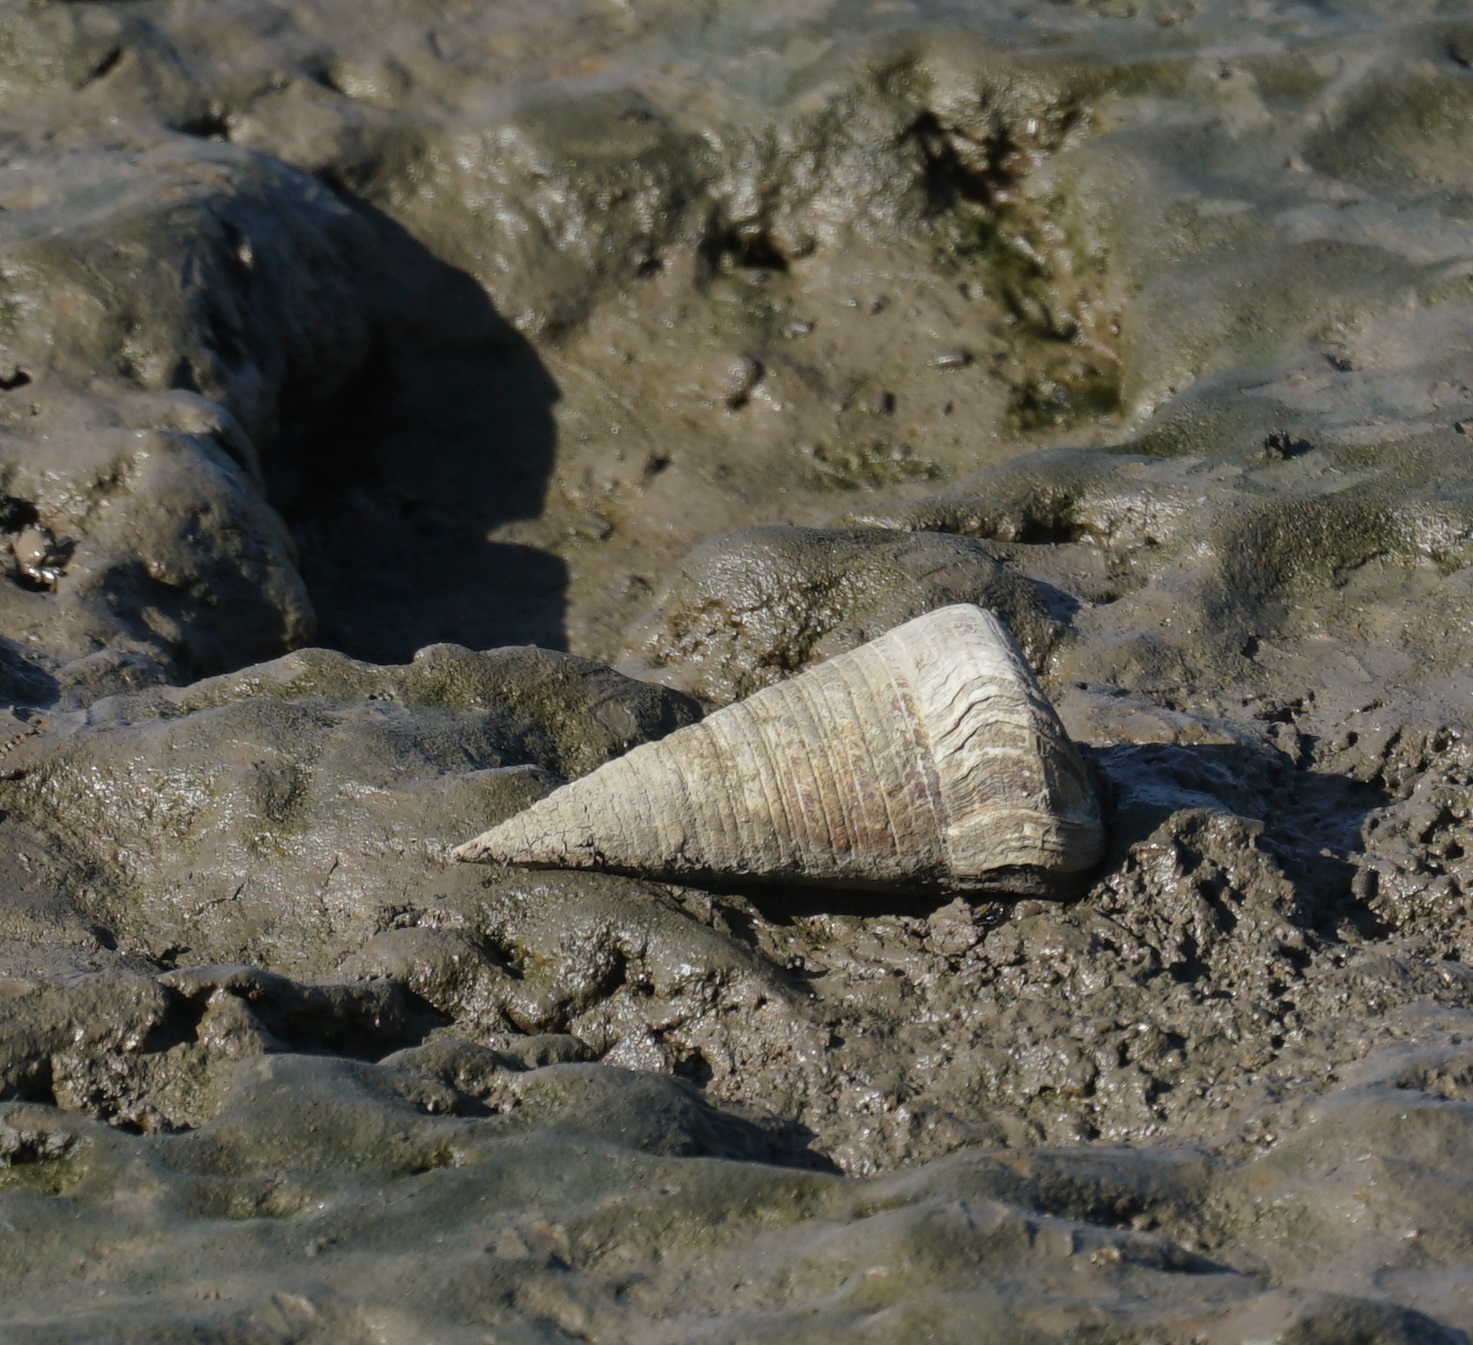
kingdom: Animalia
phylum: Mollusca
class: Gastropoda
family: Potamididae
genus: Telescopium
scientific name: Telescopium telescopium
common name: Telescope creeper
